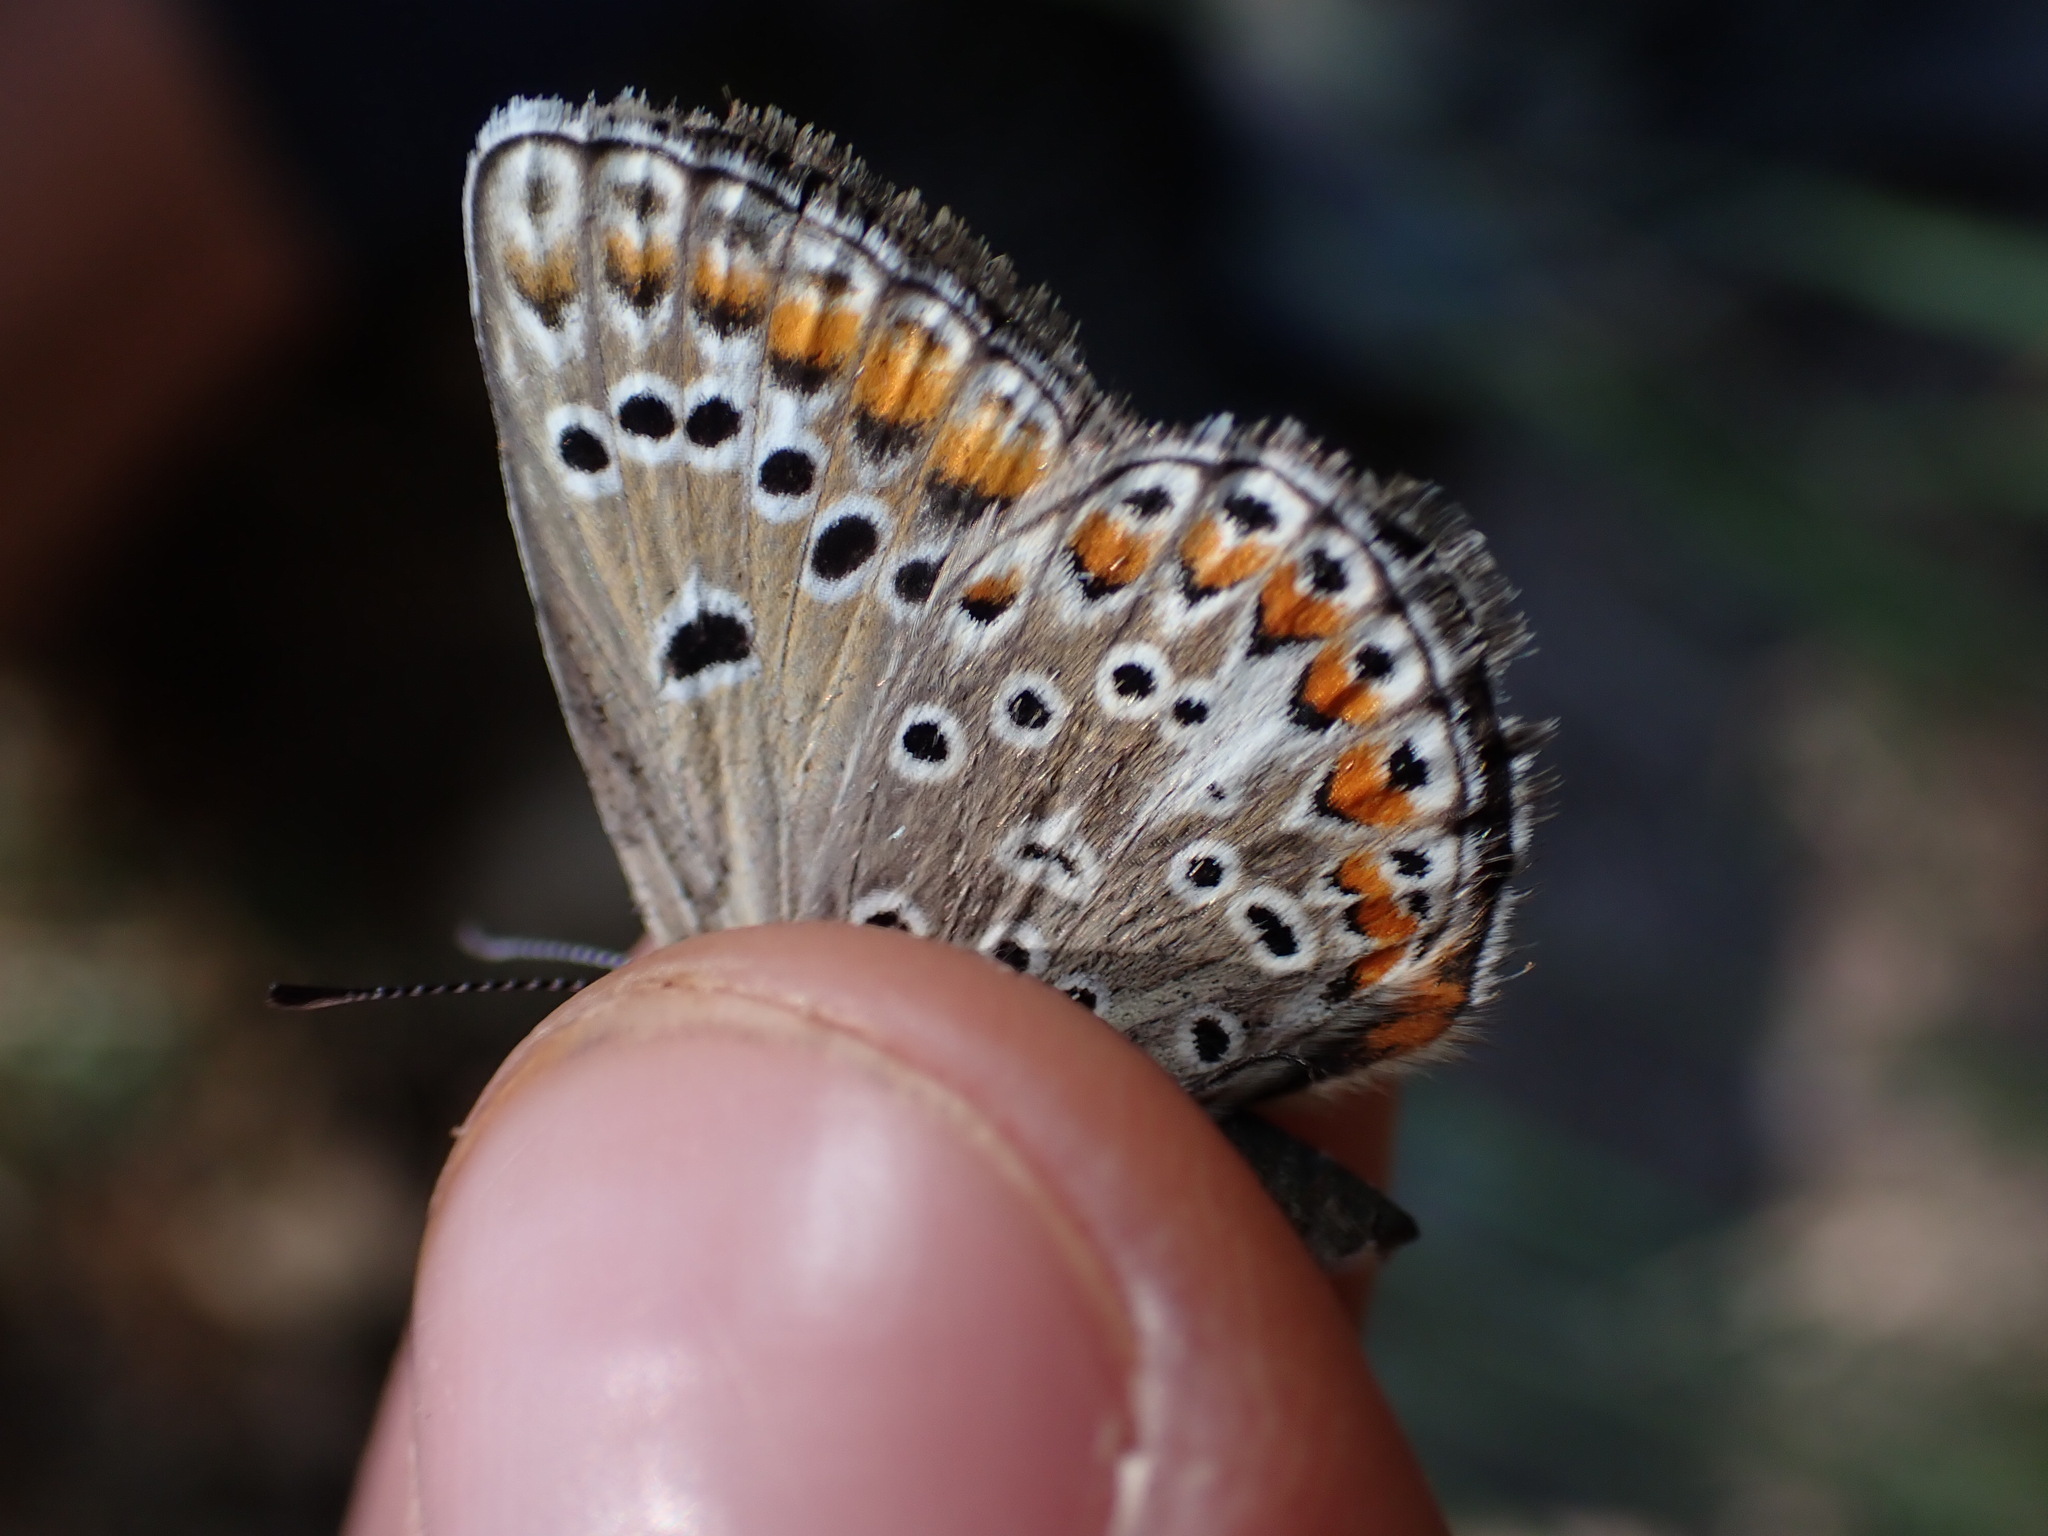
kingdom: Animalia
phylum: Arthropoda
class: Insecta
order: Lepidoptera
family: Lycaenidae
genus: Plebicula
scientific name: Plebicula escheri
